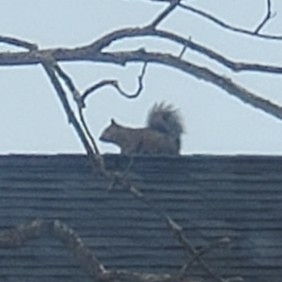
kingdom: Animalia
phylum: Chordata
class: Mammalia
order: Rodentia
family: Sciuridae
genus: Sciurus
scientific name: Sciurus carolinensis
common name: Eastern gray squirrel
